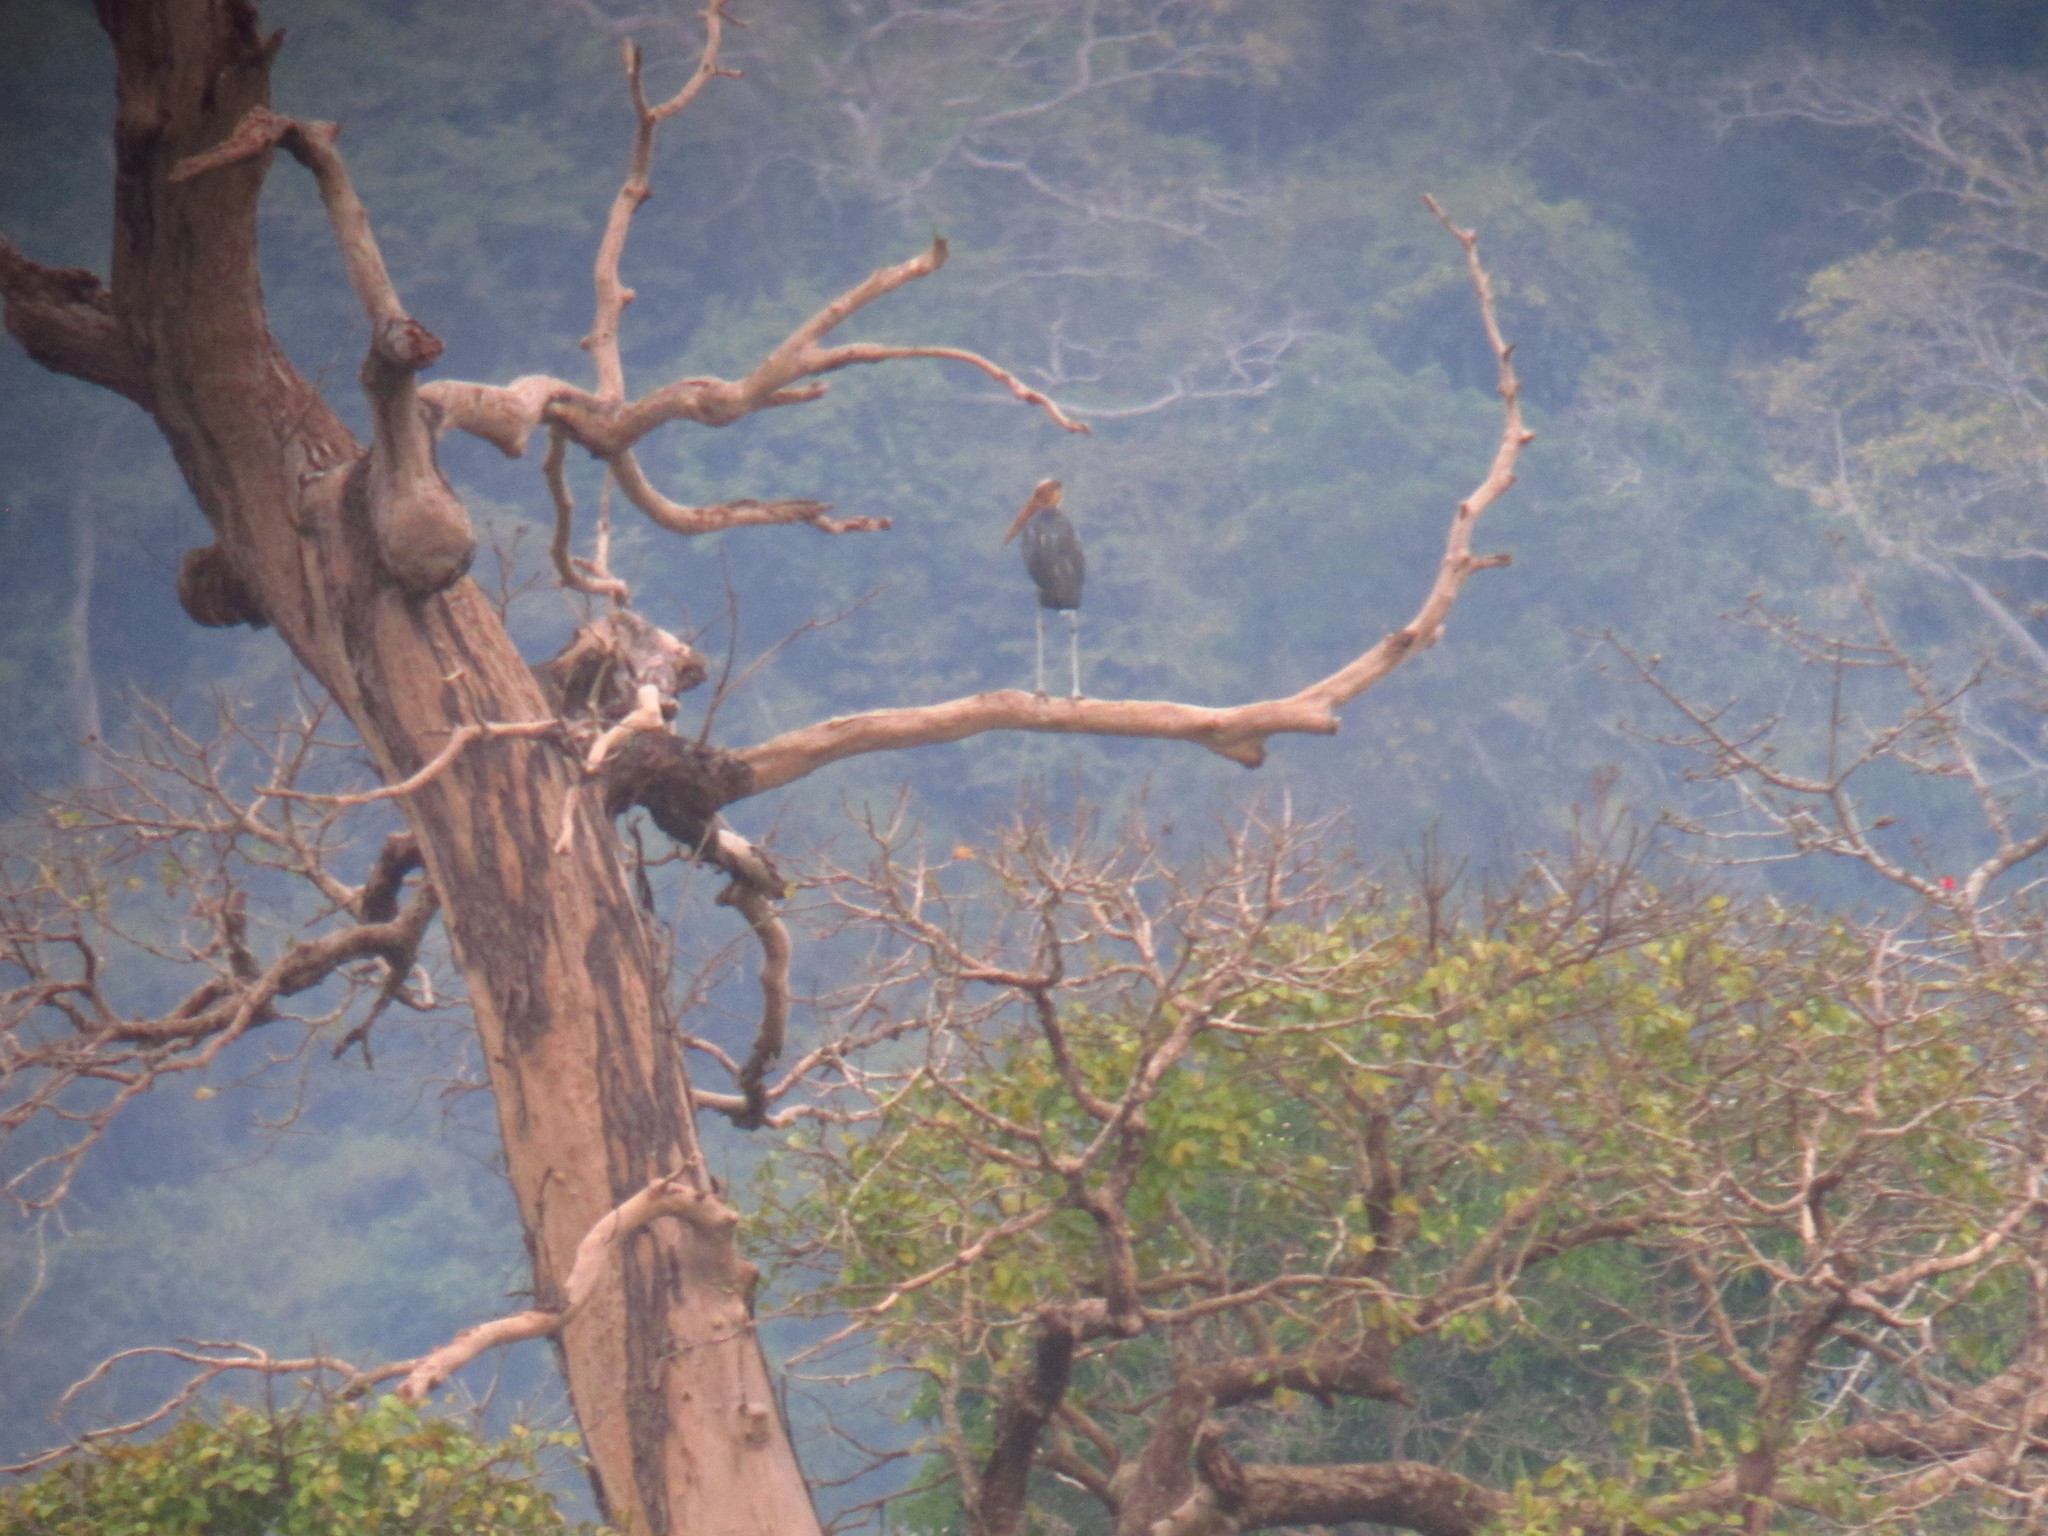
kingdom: Animalia
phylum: Chordata
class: Aves
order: Ciconiiformes
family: Ciconiidae
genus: Leptoptilos
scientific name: Leptoptilos javanicus
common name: Lesser adjutant
